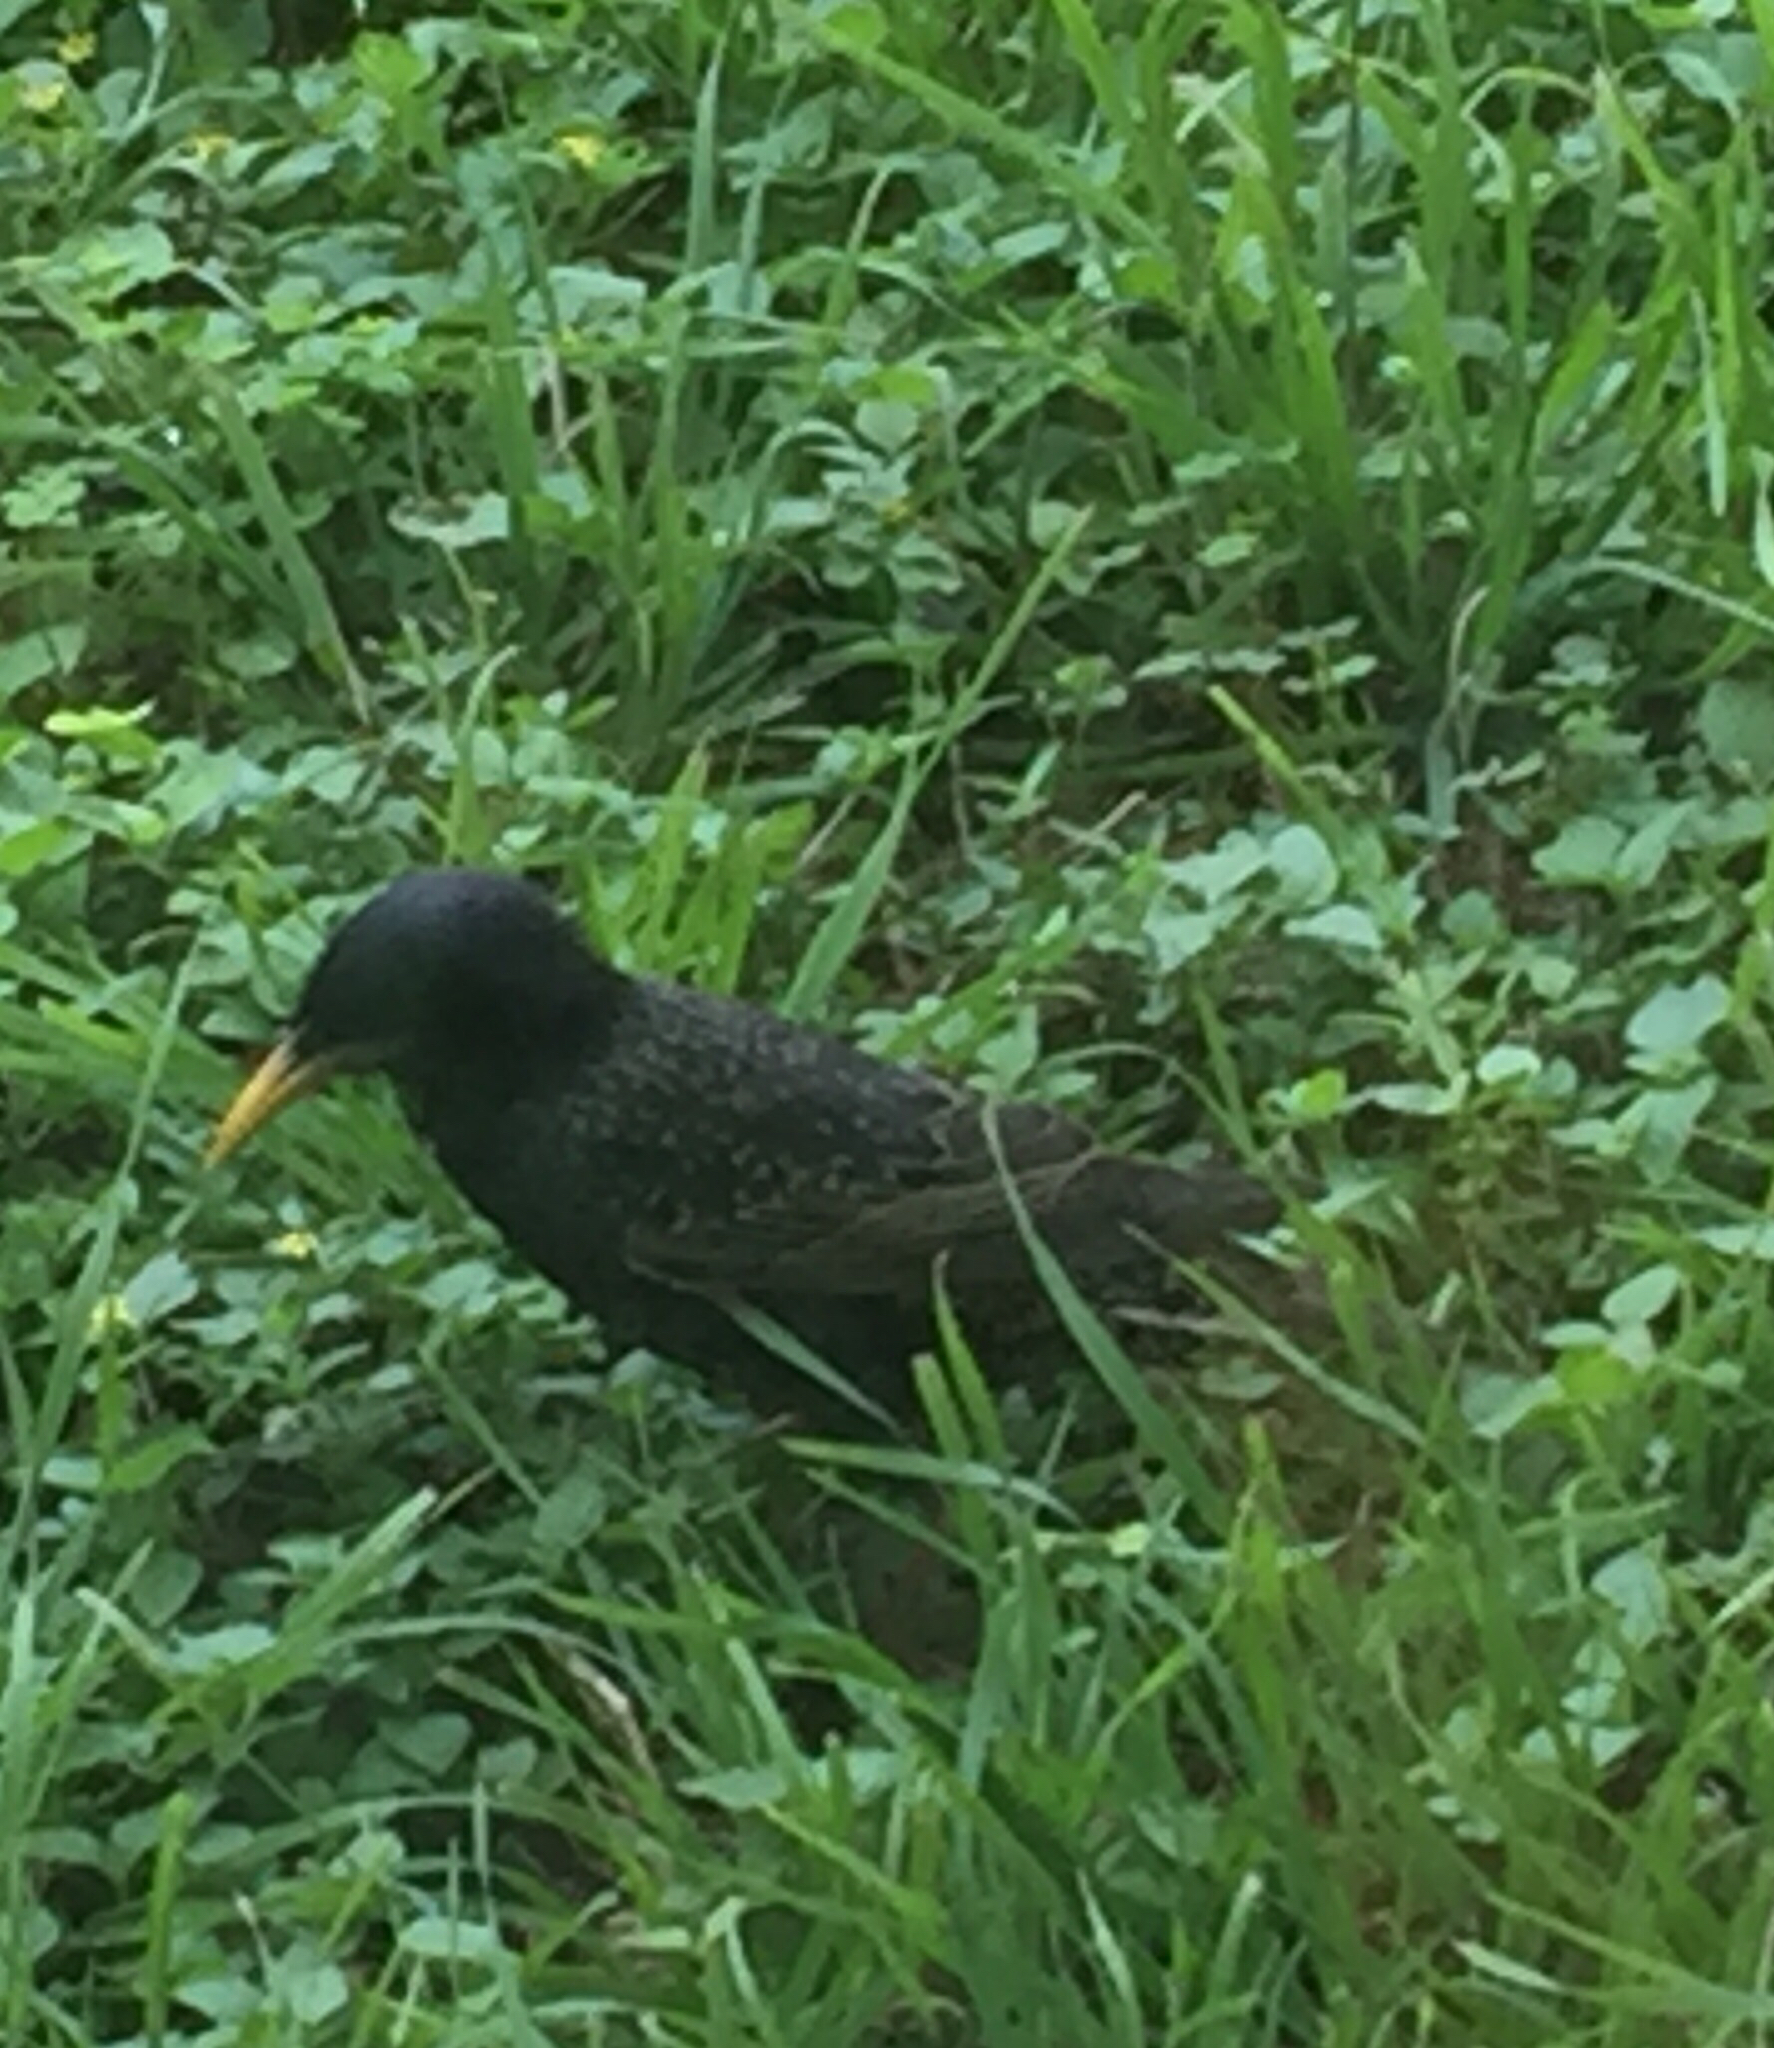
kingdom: Animalia
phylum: Chordata
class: Aves
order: Passeriformes
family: Sturnidae
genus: Sturnus
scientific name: Sturnus vulgaris
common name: Common starling
